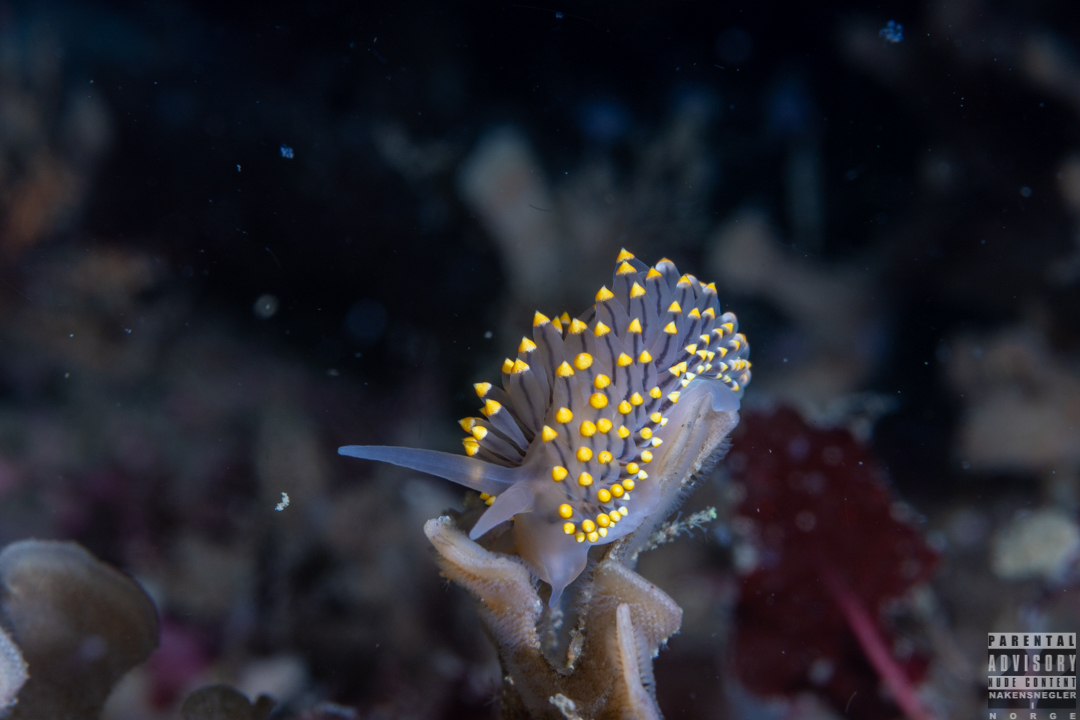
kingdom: Animalia
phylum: Mollusca
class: Gastropoda
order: Nudibranchia
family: Eubranchidae
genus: Eubranchus
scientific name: Eubranchus tricolor
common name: Painted balloon aeolis
